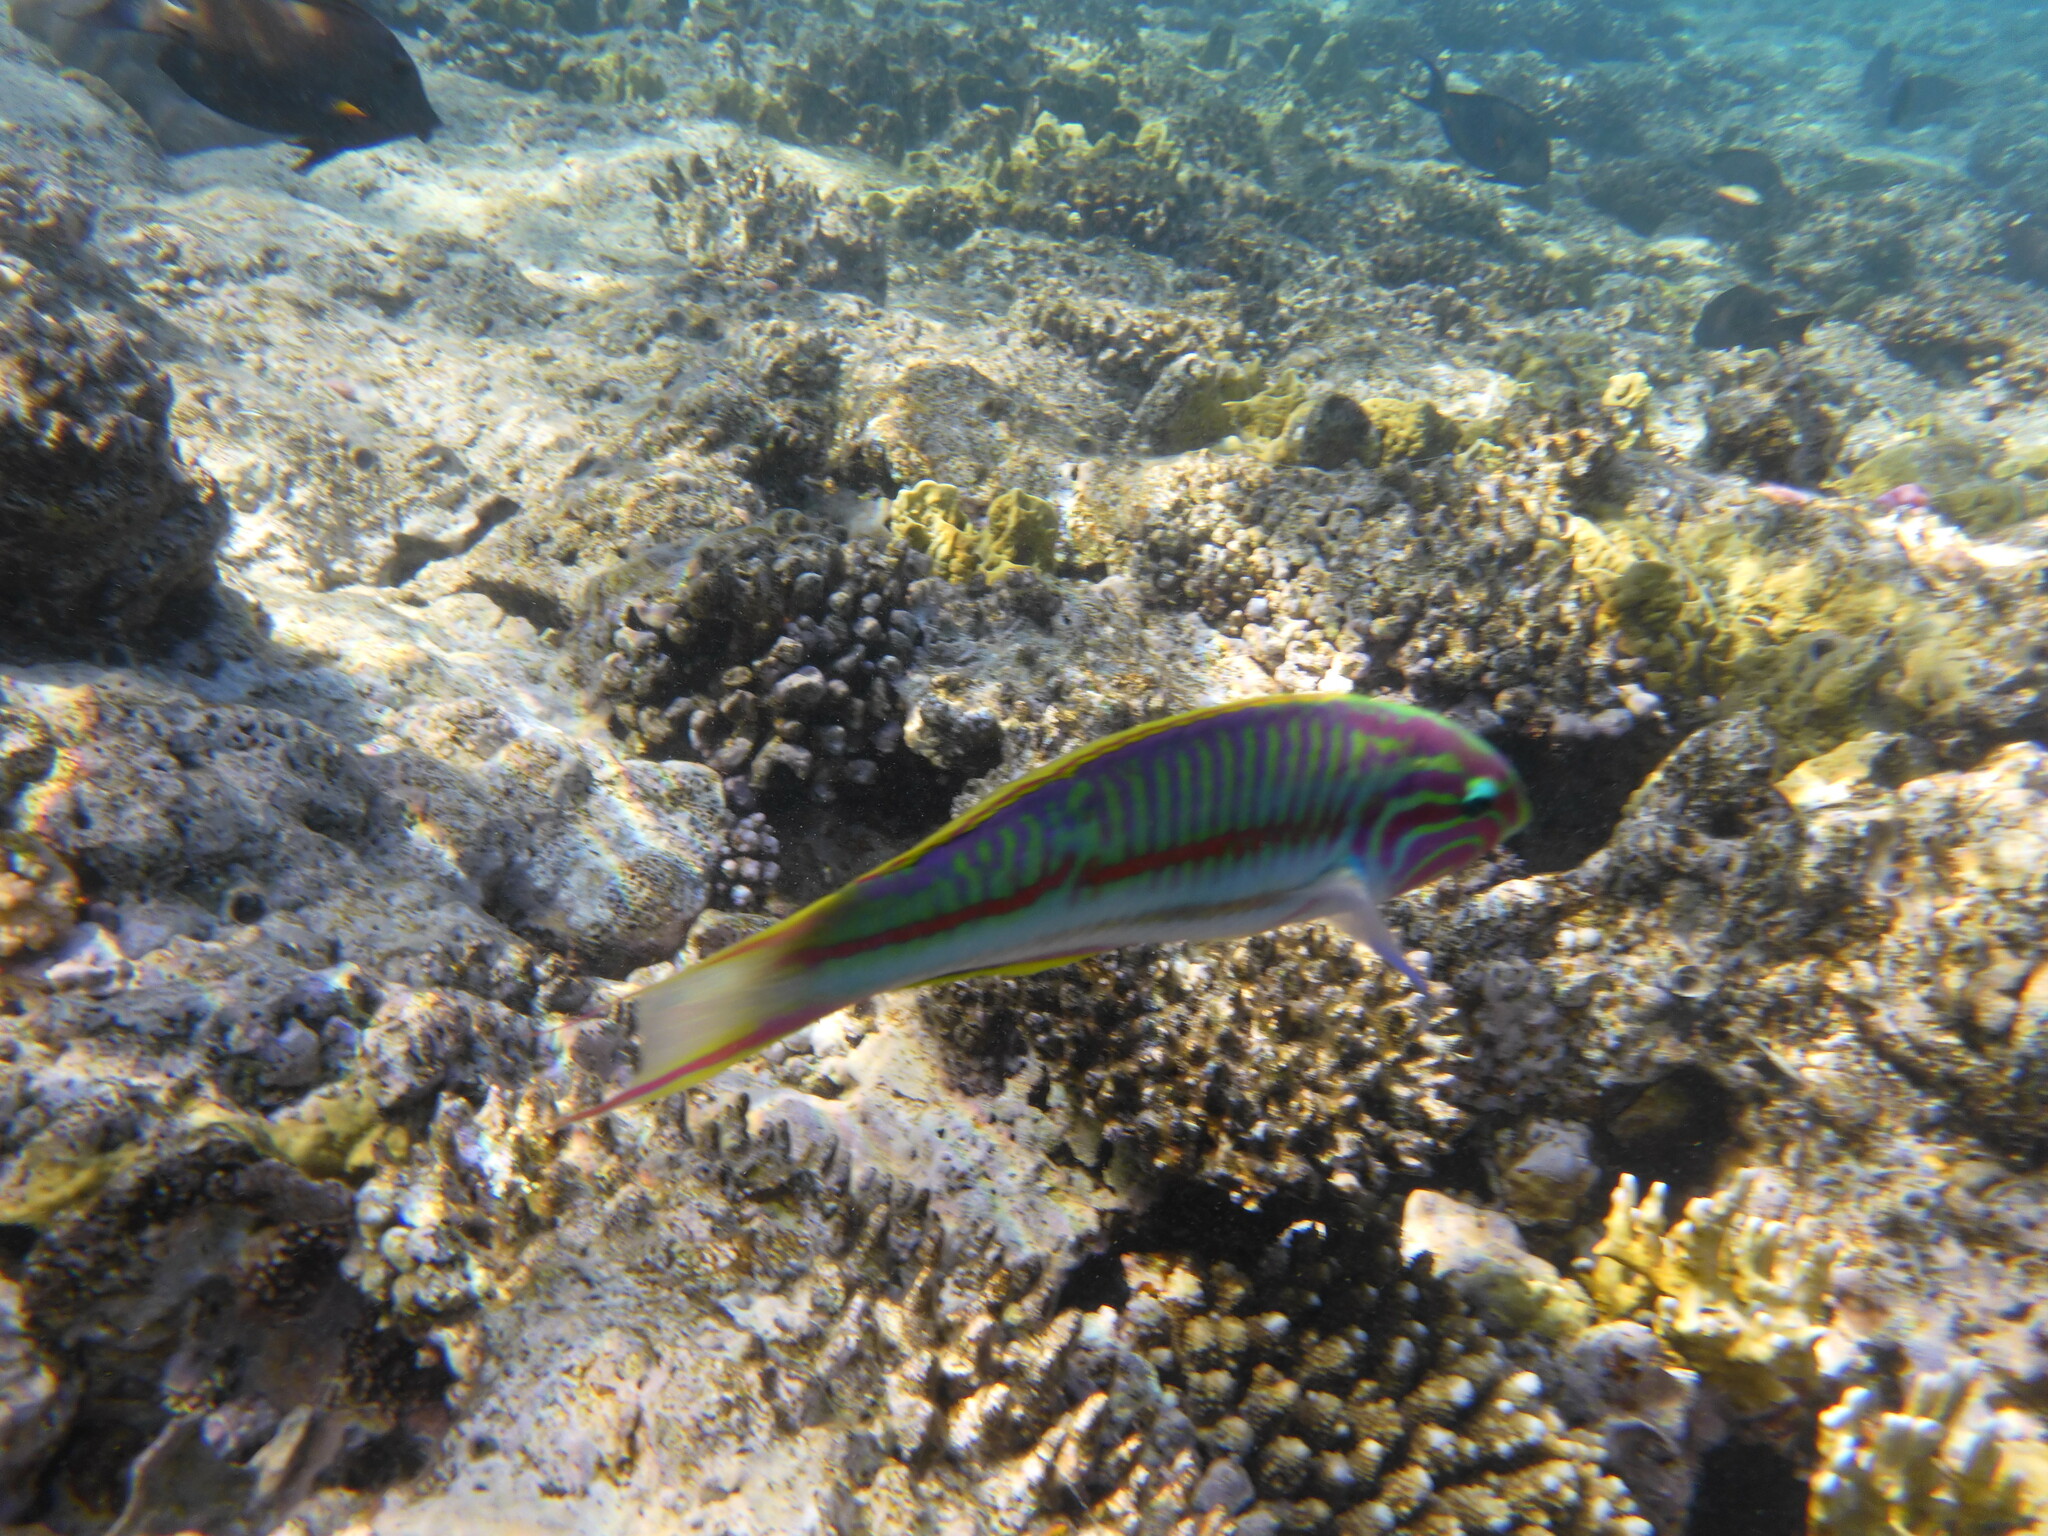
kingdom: Animalia
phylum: Chordata
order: Perciformes
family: Labridae
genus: Thalassoma
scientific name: Thalassoma rueppellii
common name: Klunzinger's wrasse
